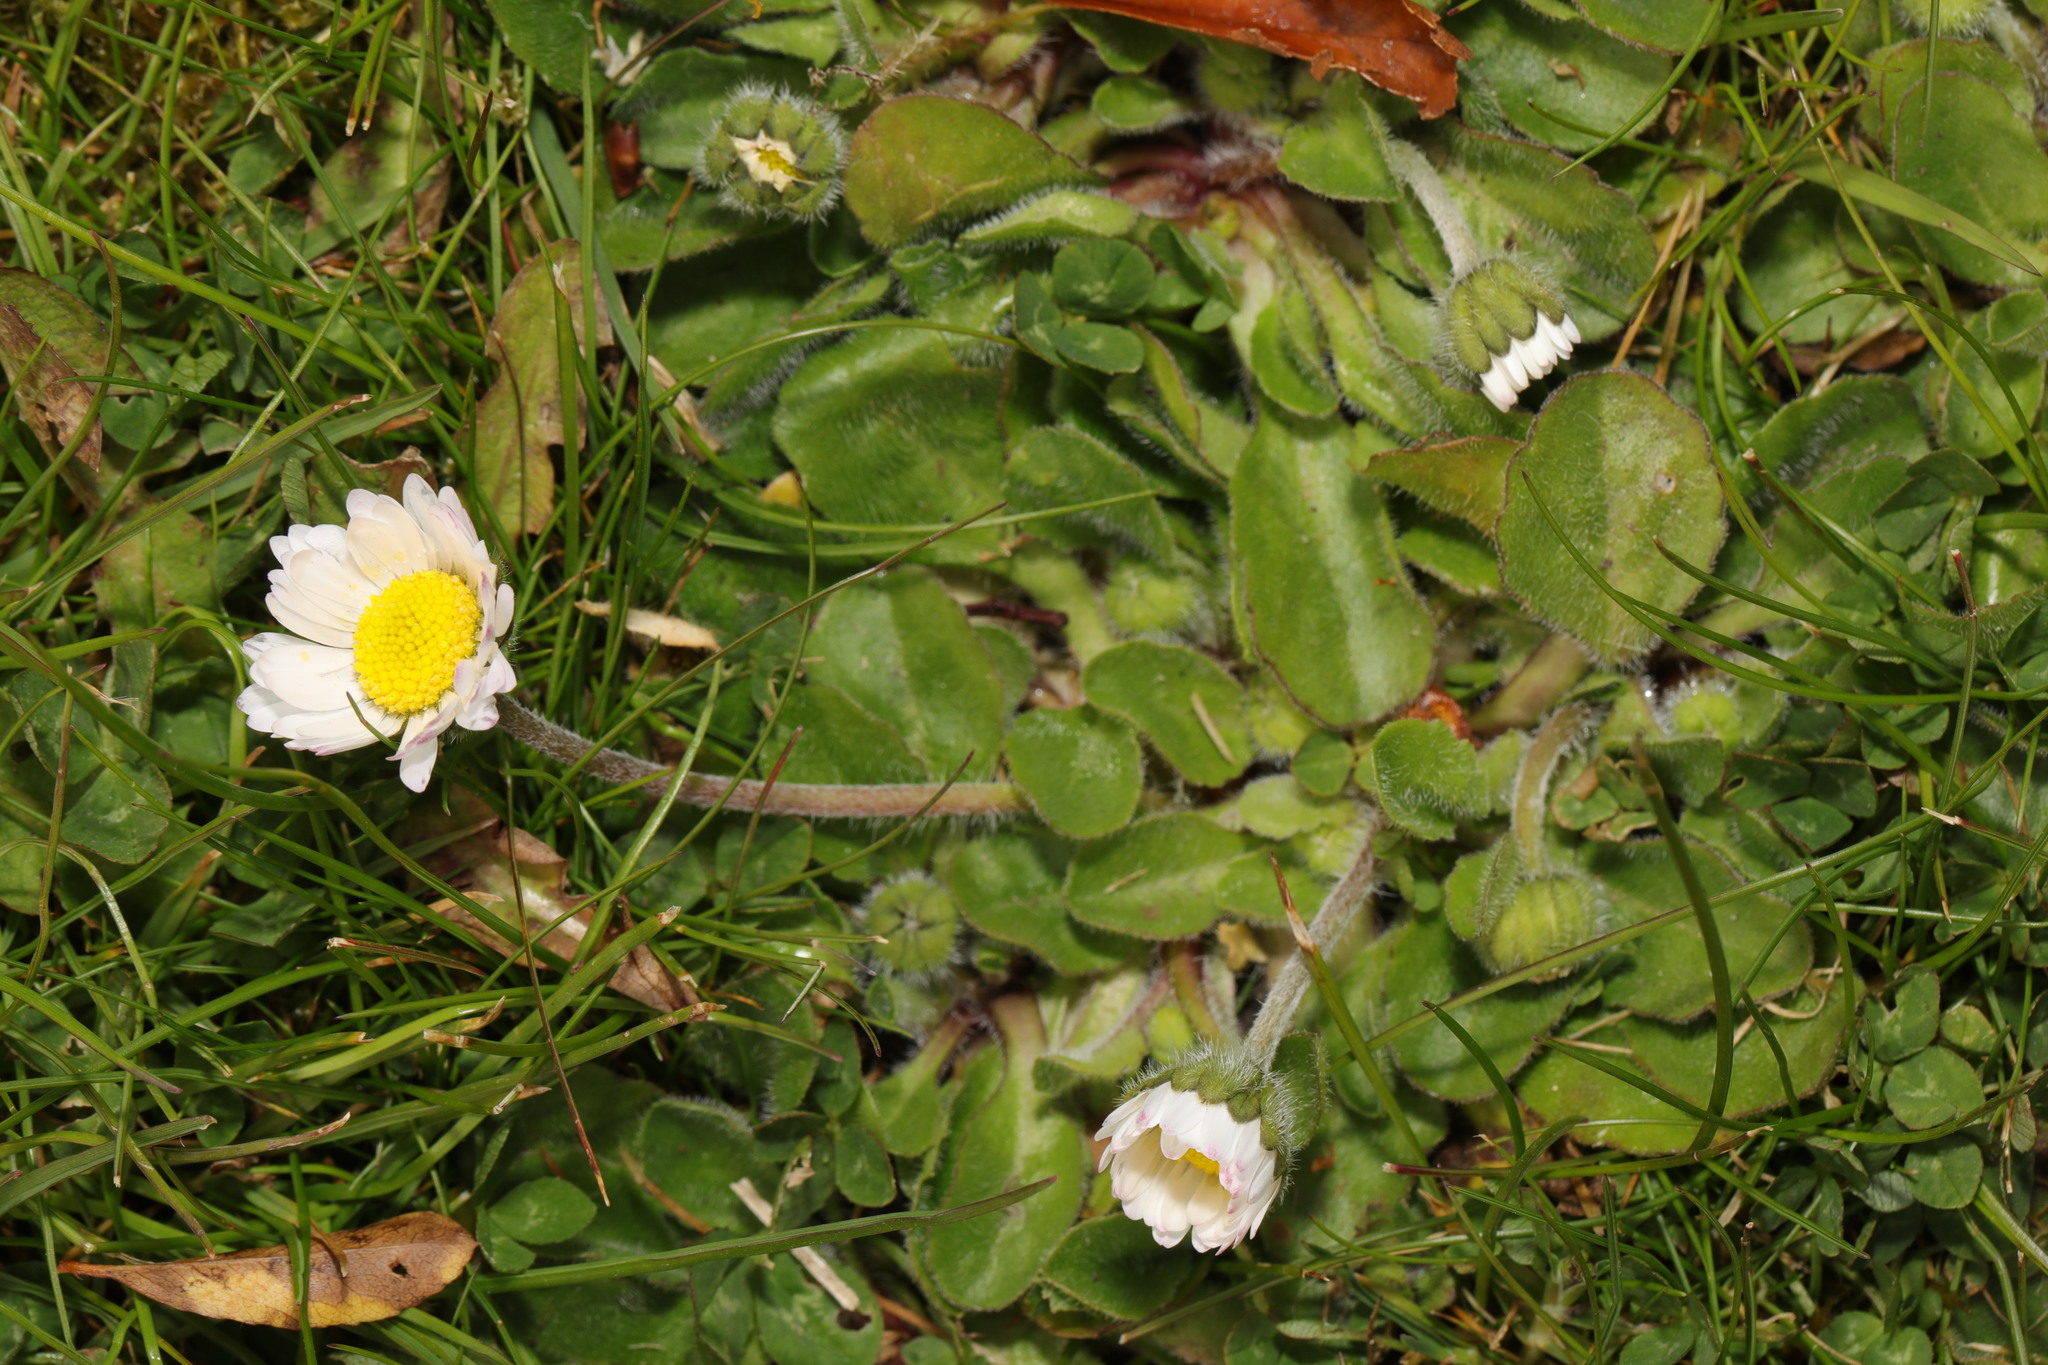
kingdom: Plantae
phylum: Tracheophyta
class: Magnoliopsida
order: Asterales
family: Asteraceae
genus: Bellis
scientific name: Bellis perennis
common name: Lawndaisy
